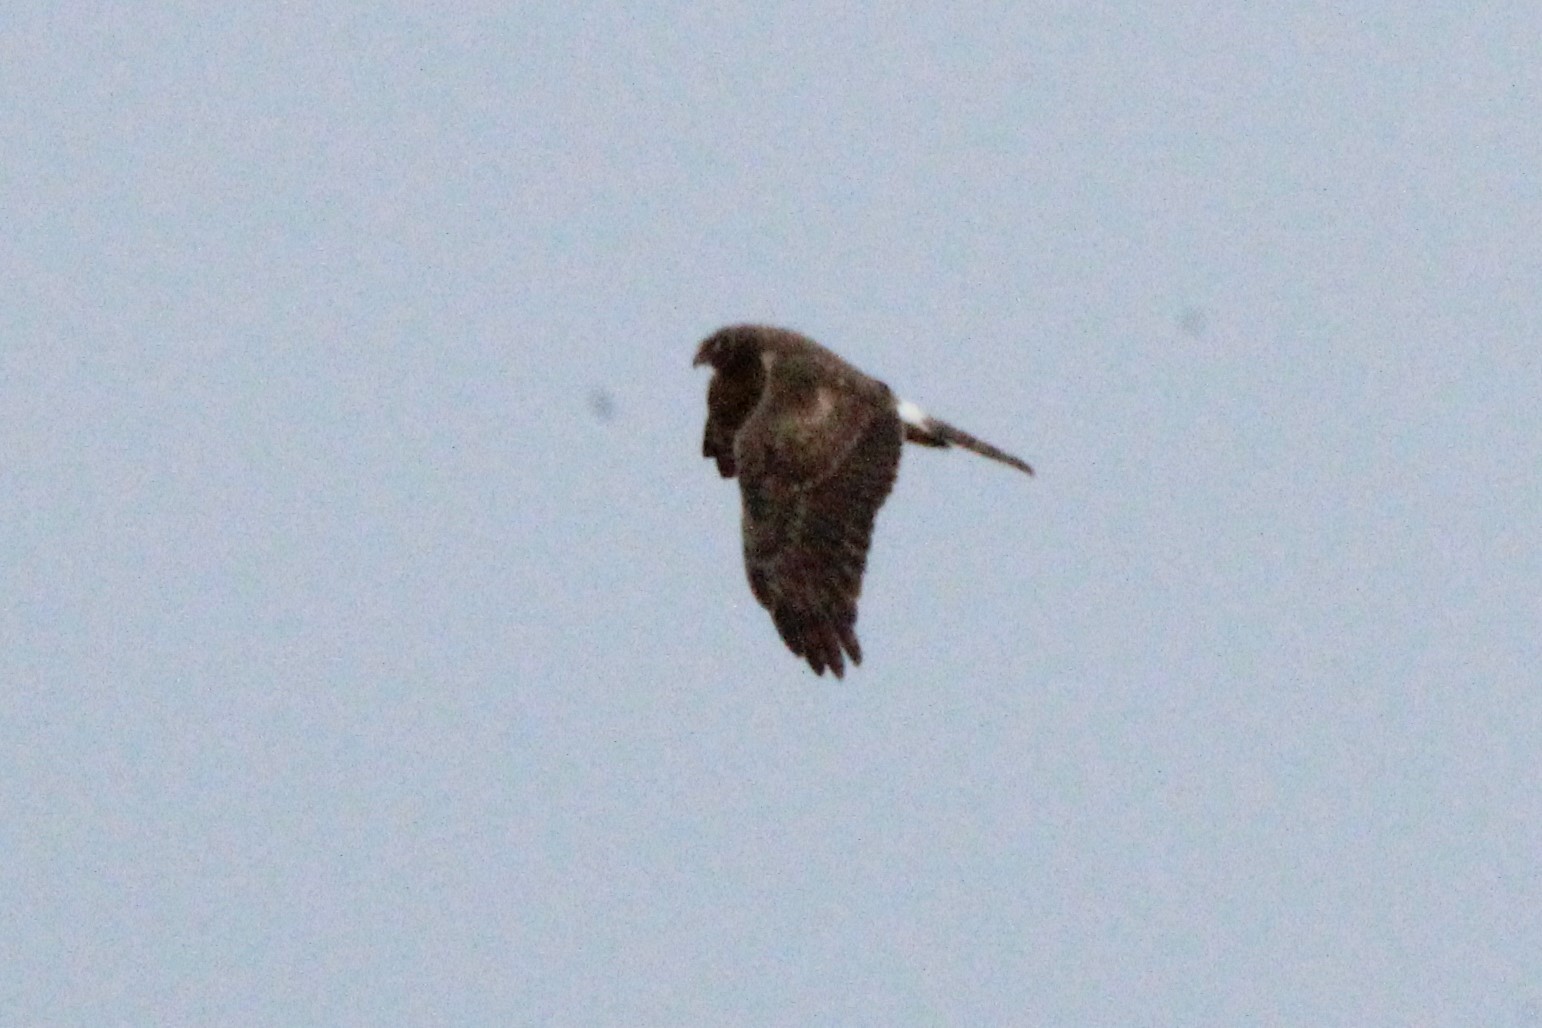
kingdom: Animalia
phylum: Chordata
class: Aves
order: Accipitriformes
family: Accipitridae
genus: Circus
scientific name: Circus cyaneus
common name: Hen harrier
